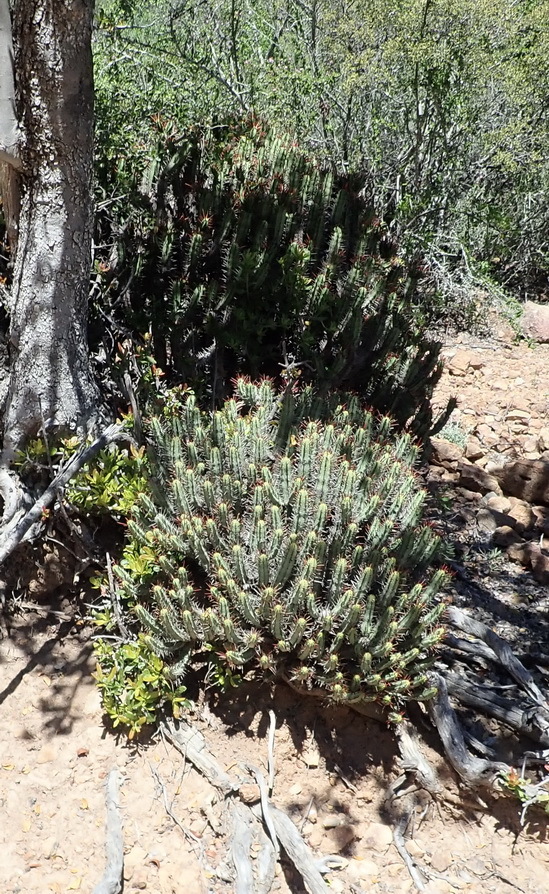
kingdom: Plantae
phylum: Tracheophyta
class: Magnoliopsida
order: Malpighiales
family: Euphorbiaceae
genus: Euphorbia
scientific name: Euphorbia heptagona
